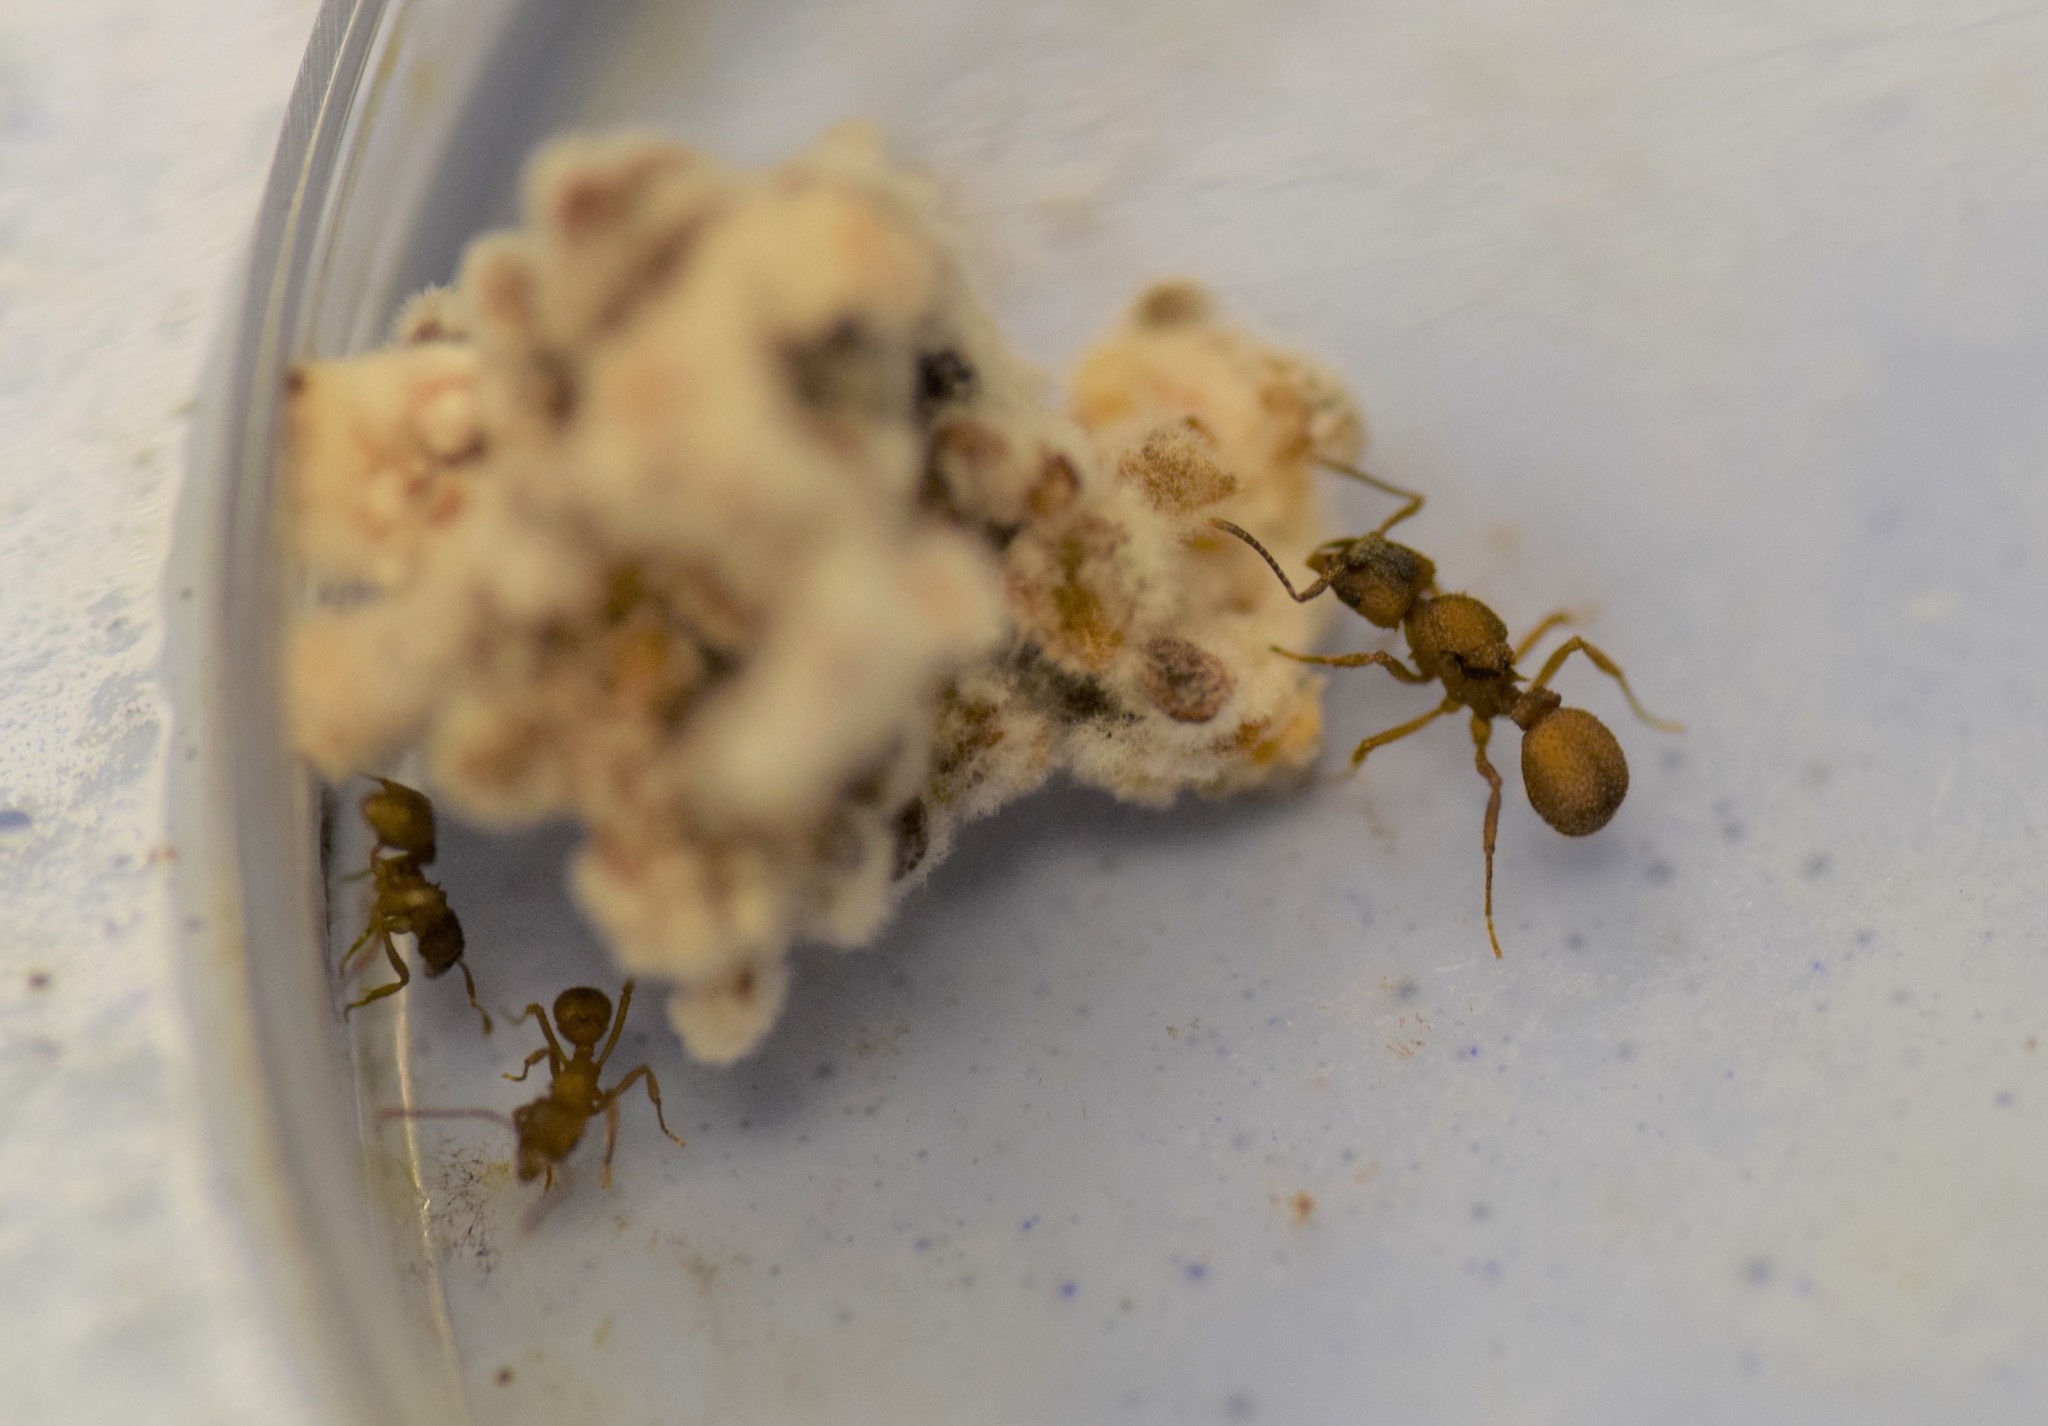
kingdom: Animalia
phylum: Arthropoda
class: Insecta
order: Hymenoptera
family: Formicidae
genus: Trachymyrmex
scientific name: Trachymyrmex septentrionalis
